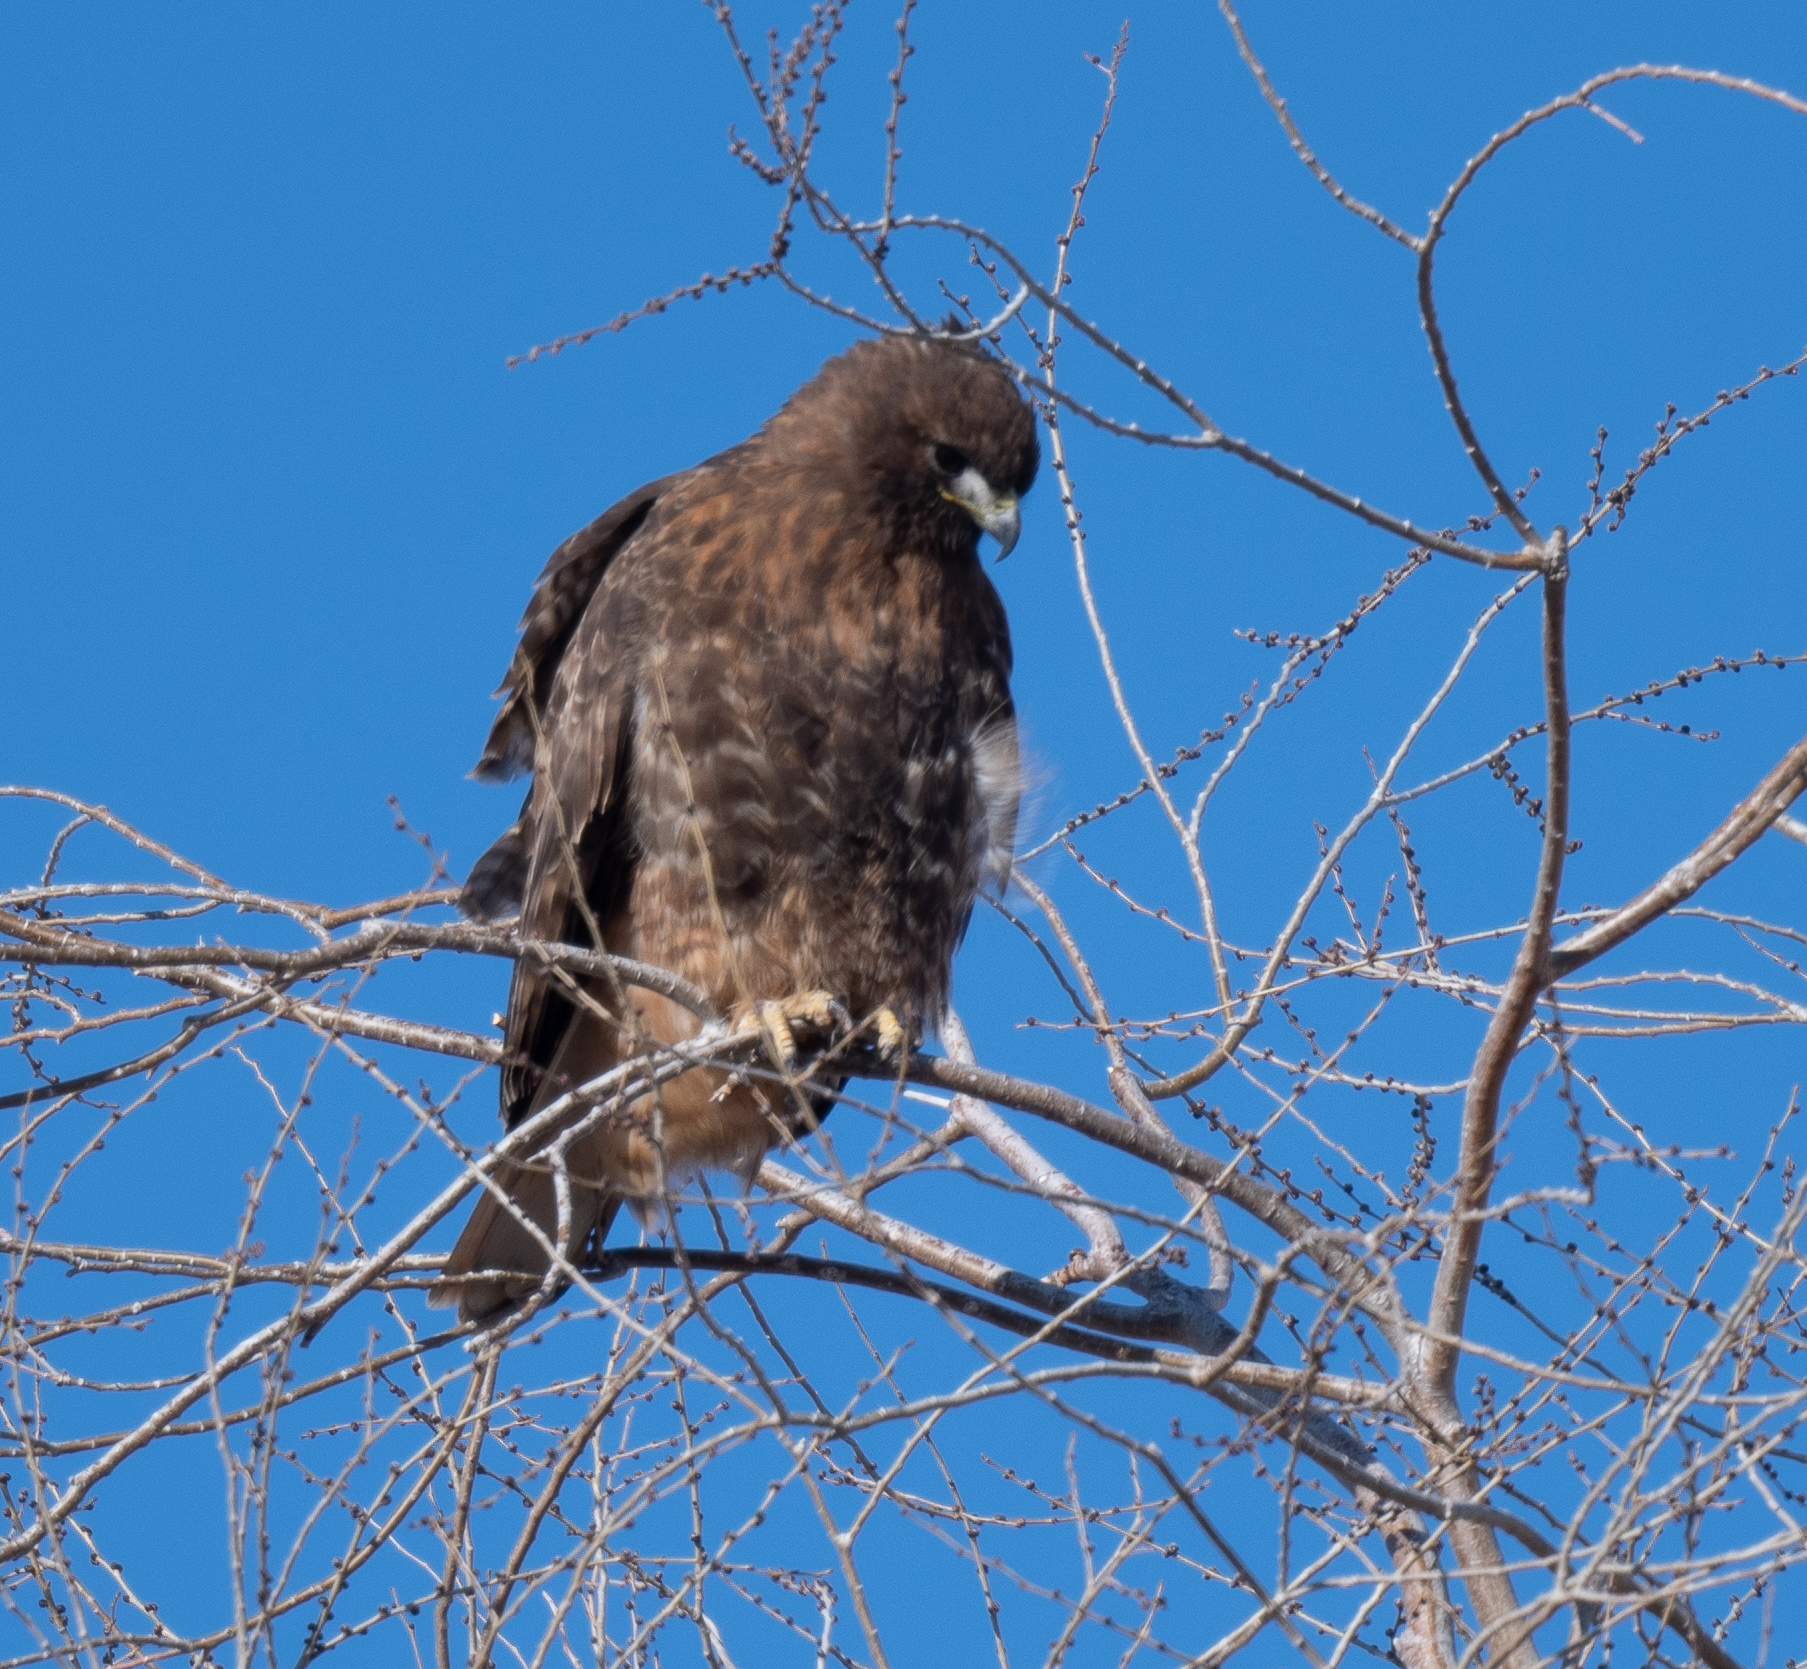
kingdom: Animalia
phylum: Chordata
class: Aves
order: Accipitriformes
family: Accipitridae
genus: Buteo
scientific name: Buteo jamaicensis
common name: Red-tailed hawk
